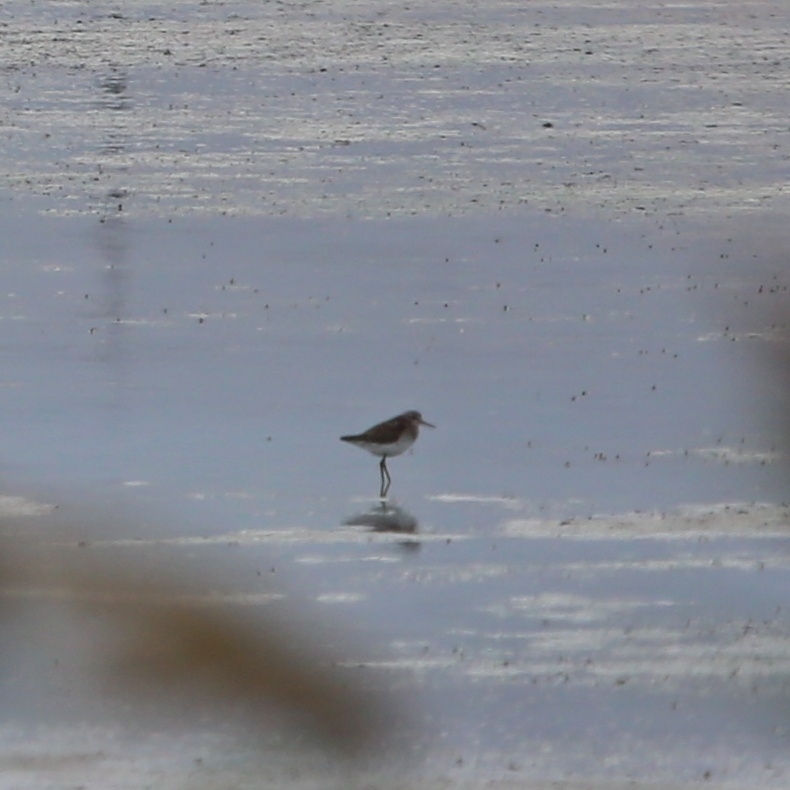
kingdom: Animalia
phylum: Chordata
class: Aves
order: Charadriiformes
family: Scolopacidae
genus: Tringa
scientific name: Tringa glareola
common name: Wood sandpiper
